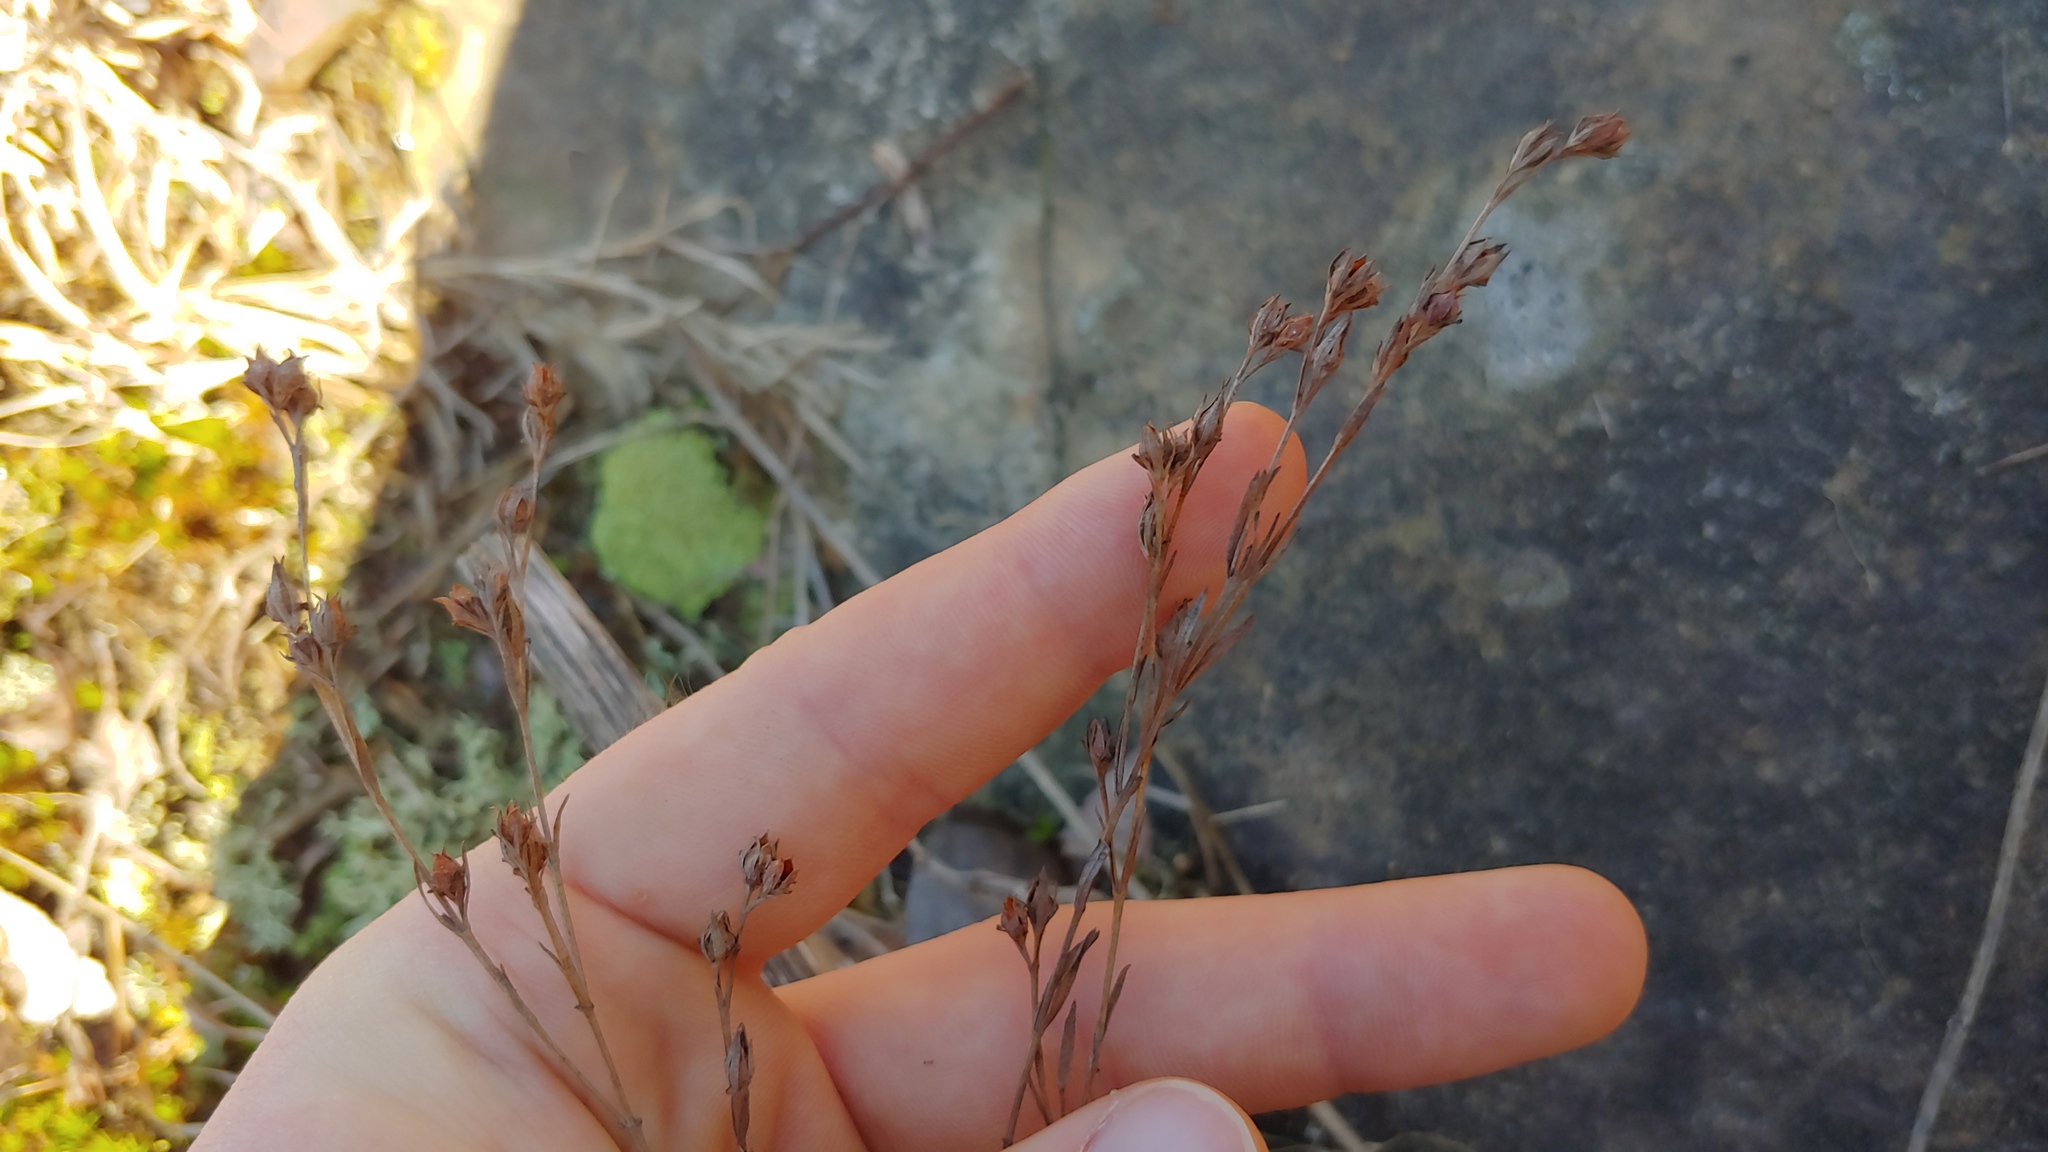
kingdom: Plantae
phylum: Tracheophyta
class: Magnoliopsida
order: Malpighiales
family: Hypericaceae
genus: Hypericum
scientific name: Hypericum drummondii
